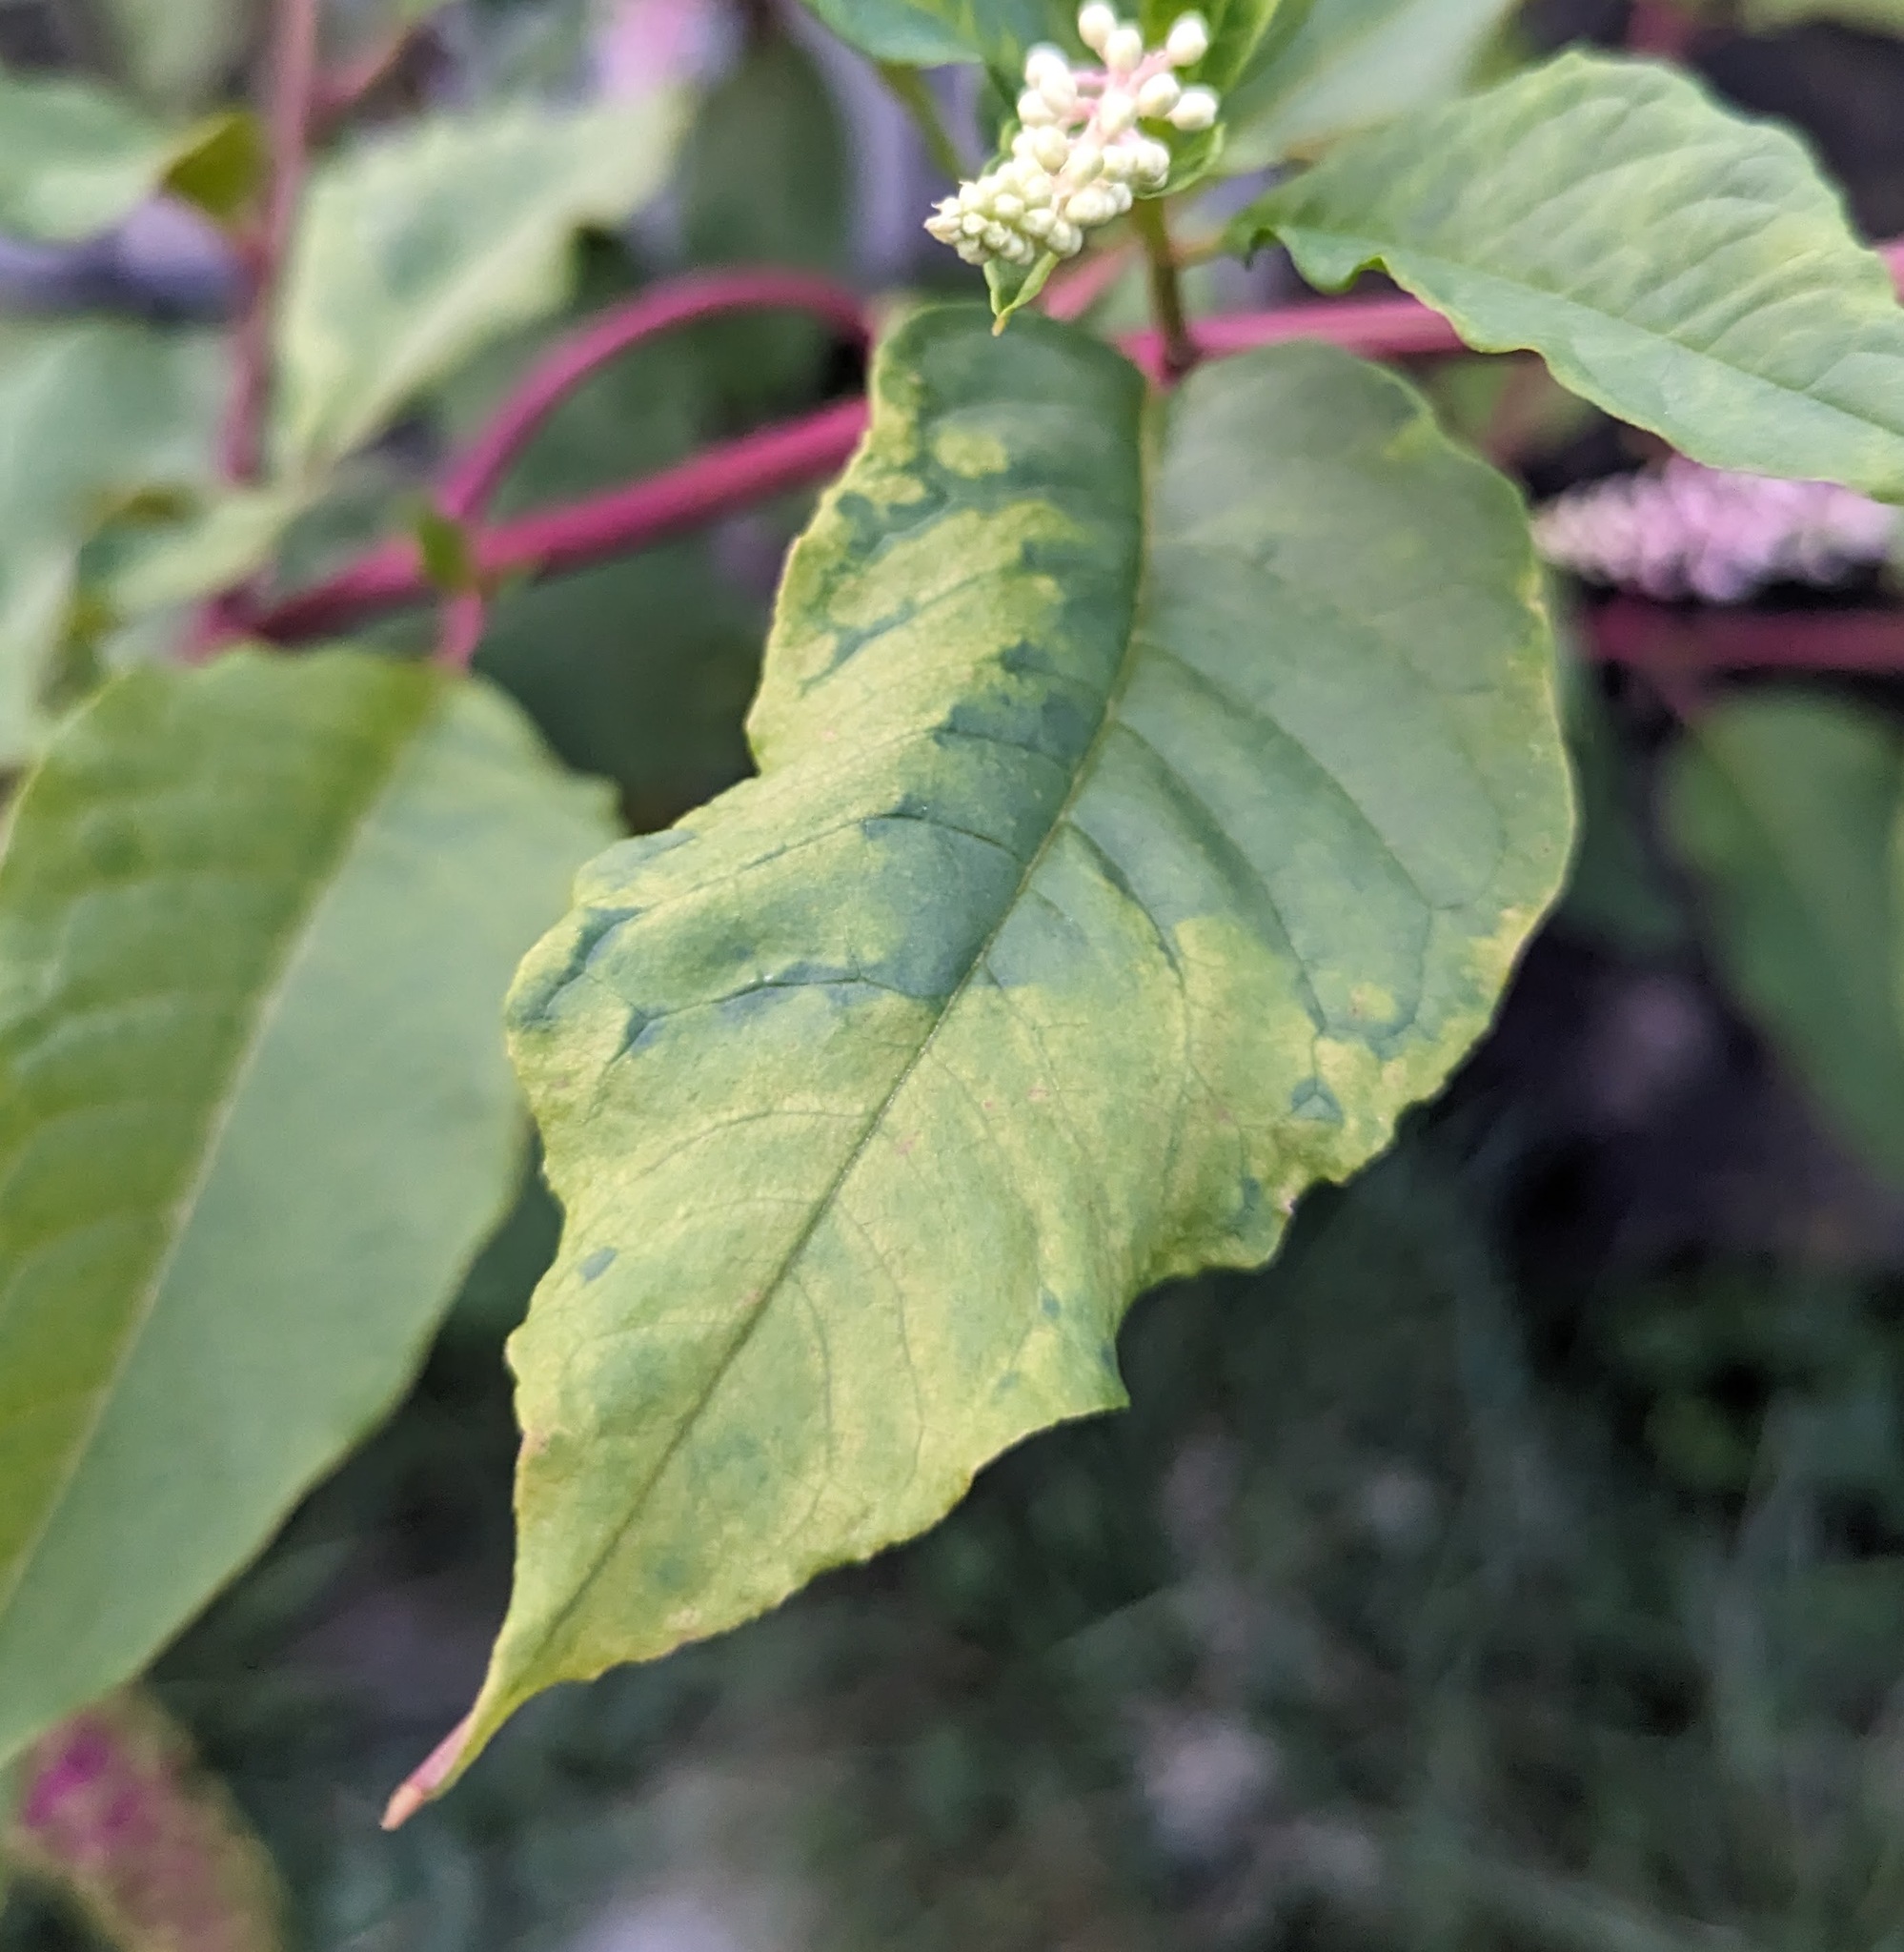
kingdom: Viruses
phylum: Pisuviricota
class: Stelpaviricetes
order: Patatavirales
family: Potyviridae
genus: Potyvirus
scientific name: Potyvirus Pokeweed mosaic virus
